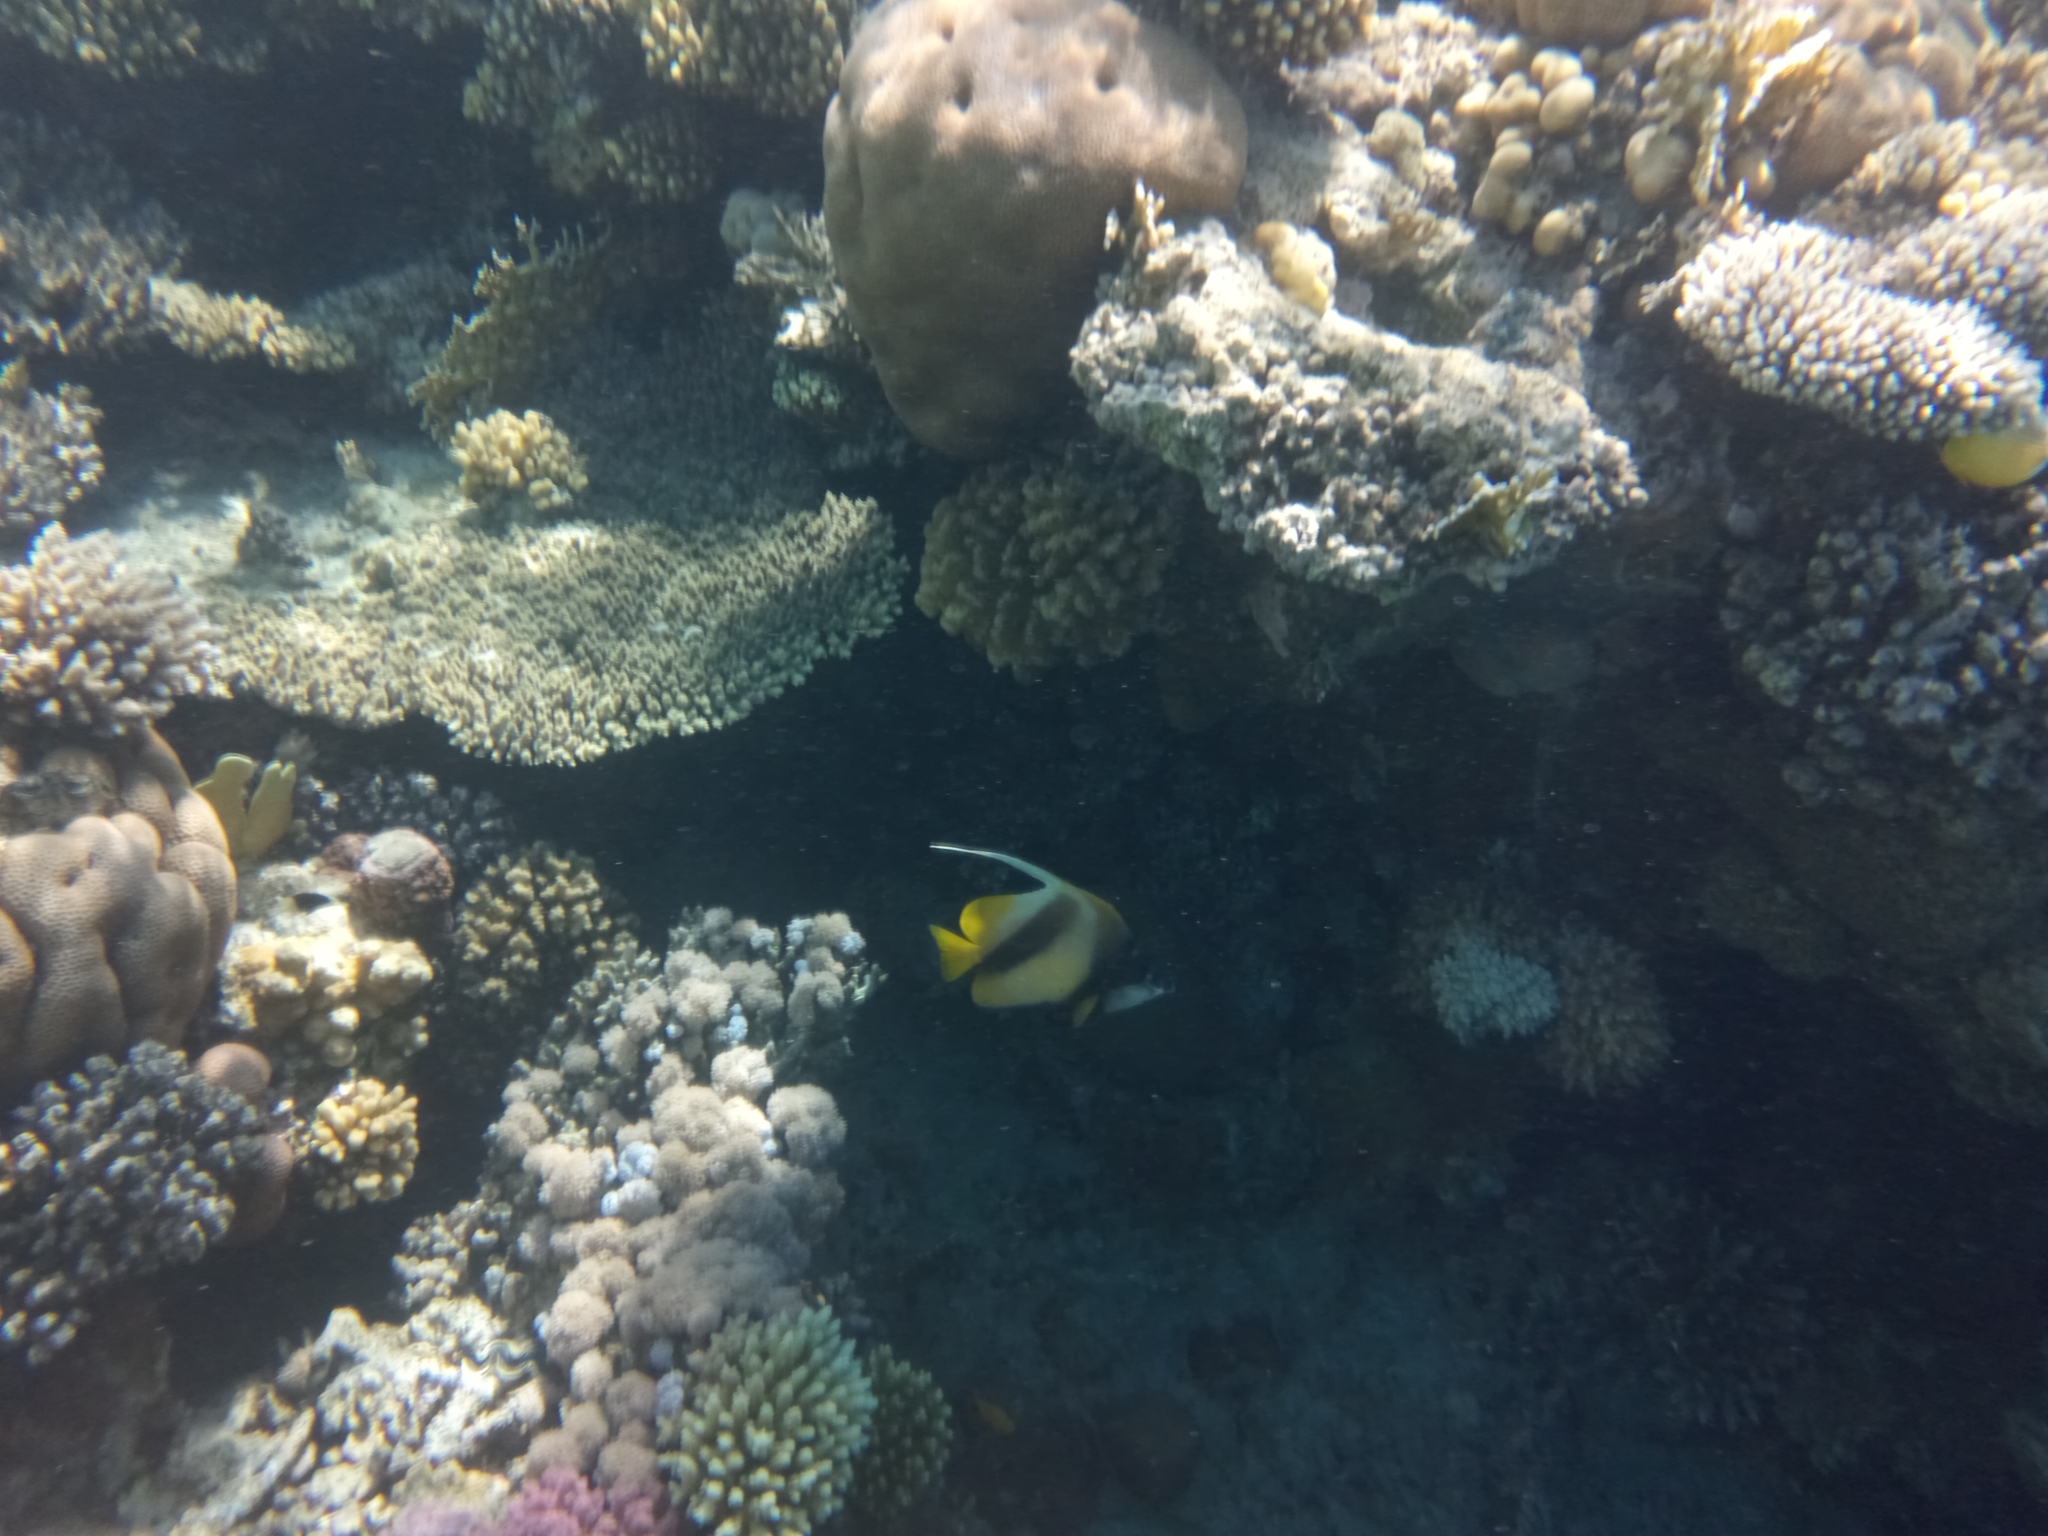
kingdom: Animalia
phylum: Chordata
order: Perciformes
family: Chaetodontidae
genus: Heniochus
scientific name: Heniochus intermedius
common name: Red sea bannerfish
